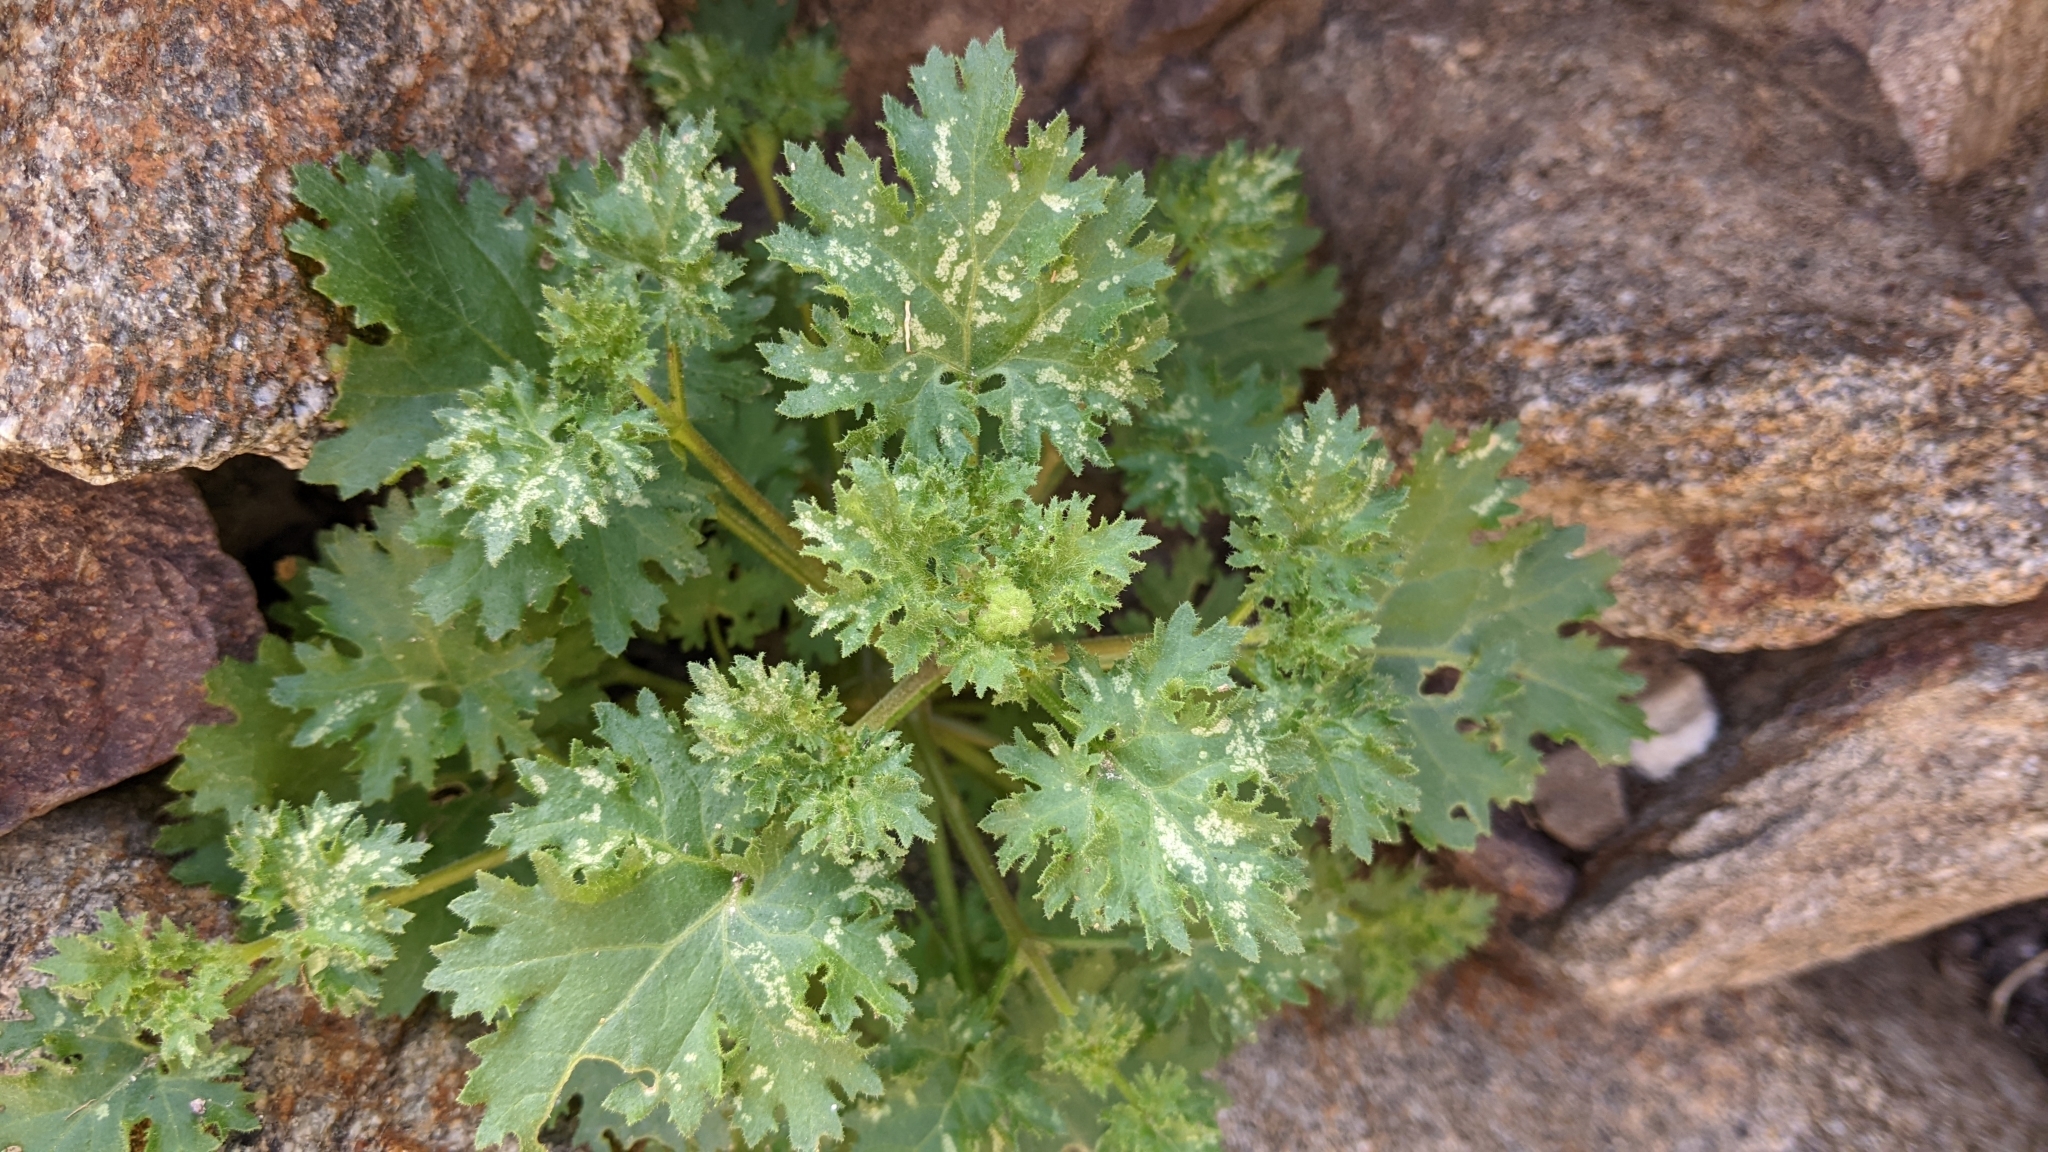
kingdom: Plantae
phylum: Tracheophyta
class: Magnoliopsida
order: Asterales
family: Asteraceae
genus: Laphamia
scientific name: Laphamia emoryi
